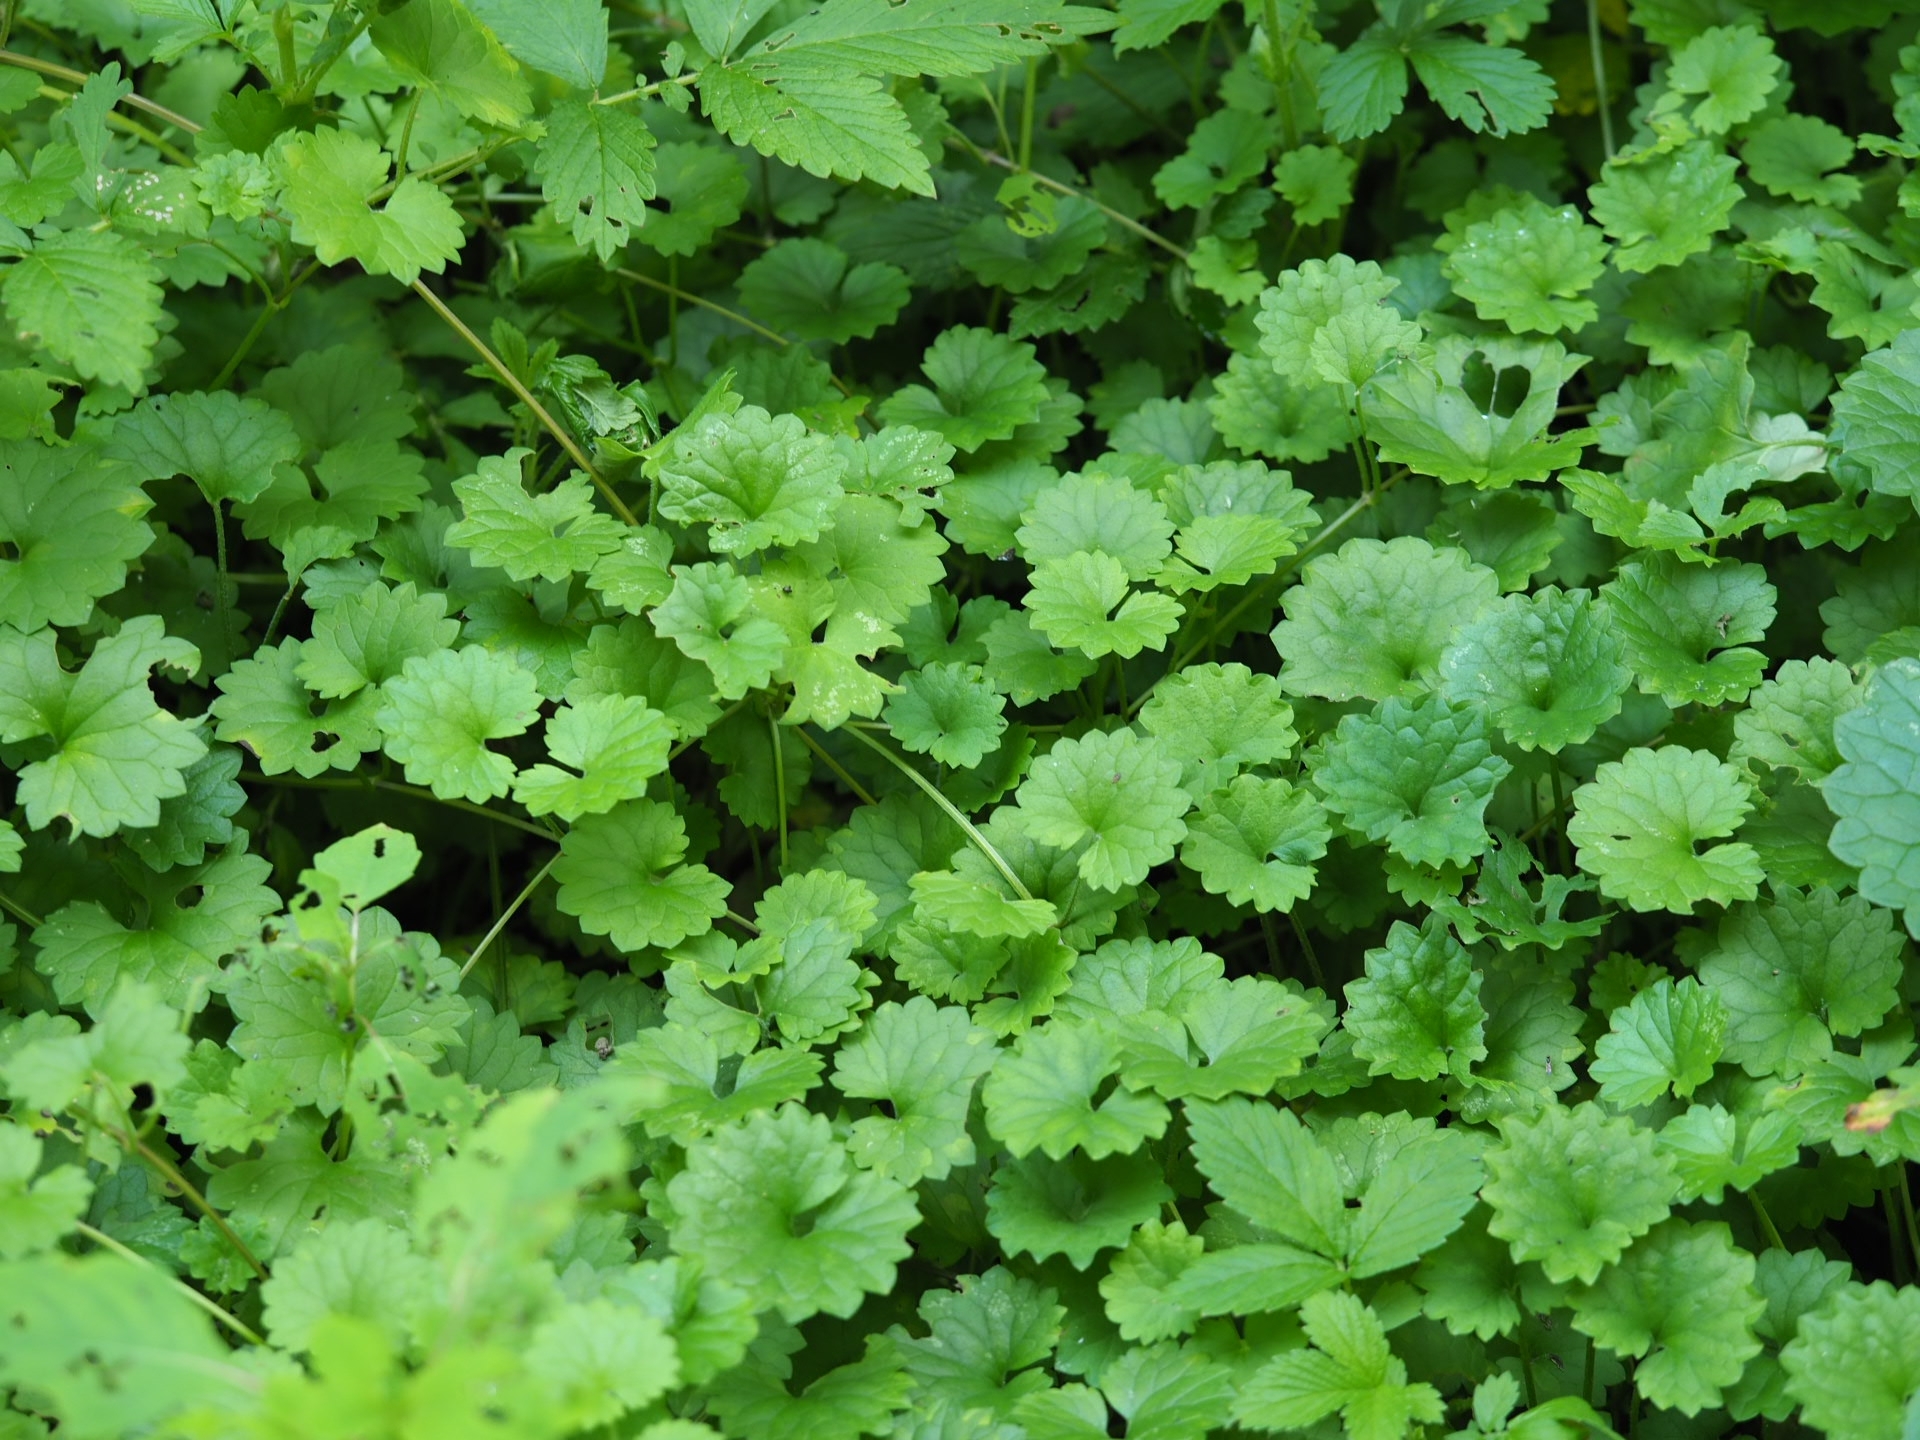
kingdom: Plantae
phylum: Tracheophyta
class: Magnoliopsida
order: Lamiales
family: Lamiaceae
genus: Glechoma
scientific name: Glechoma hederacea
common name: Ground ivy
